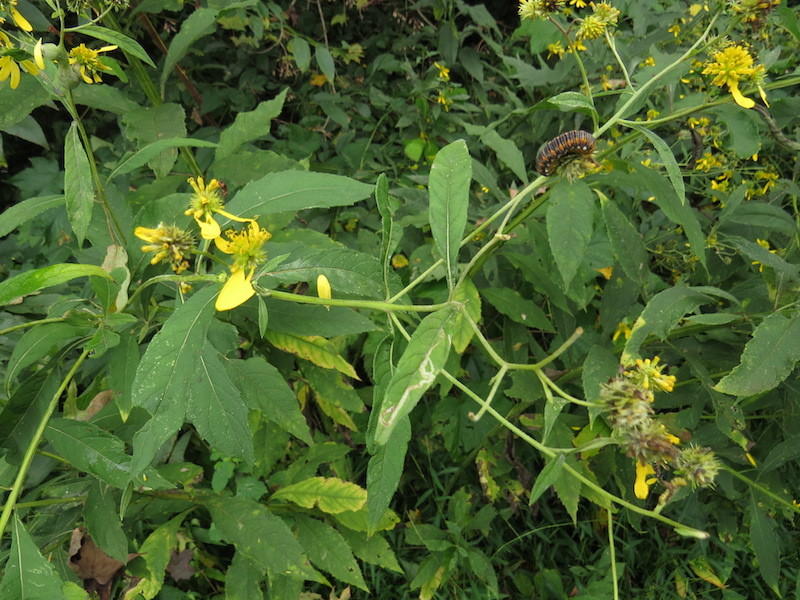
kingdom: Animalia
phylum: Arthropoda
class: Insecta
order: Lepidoptera
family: Noctuidae
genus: Basilodes
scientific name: Basilodes pepita
